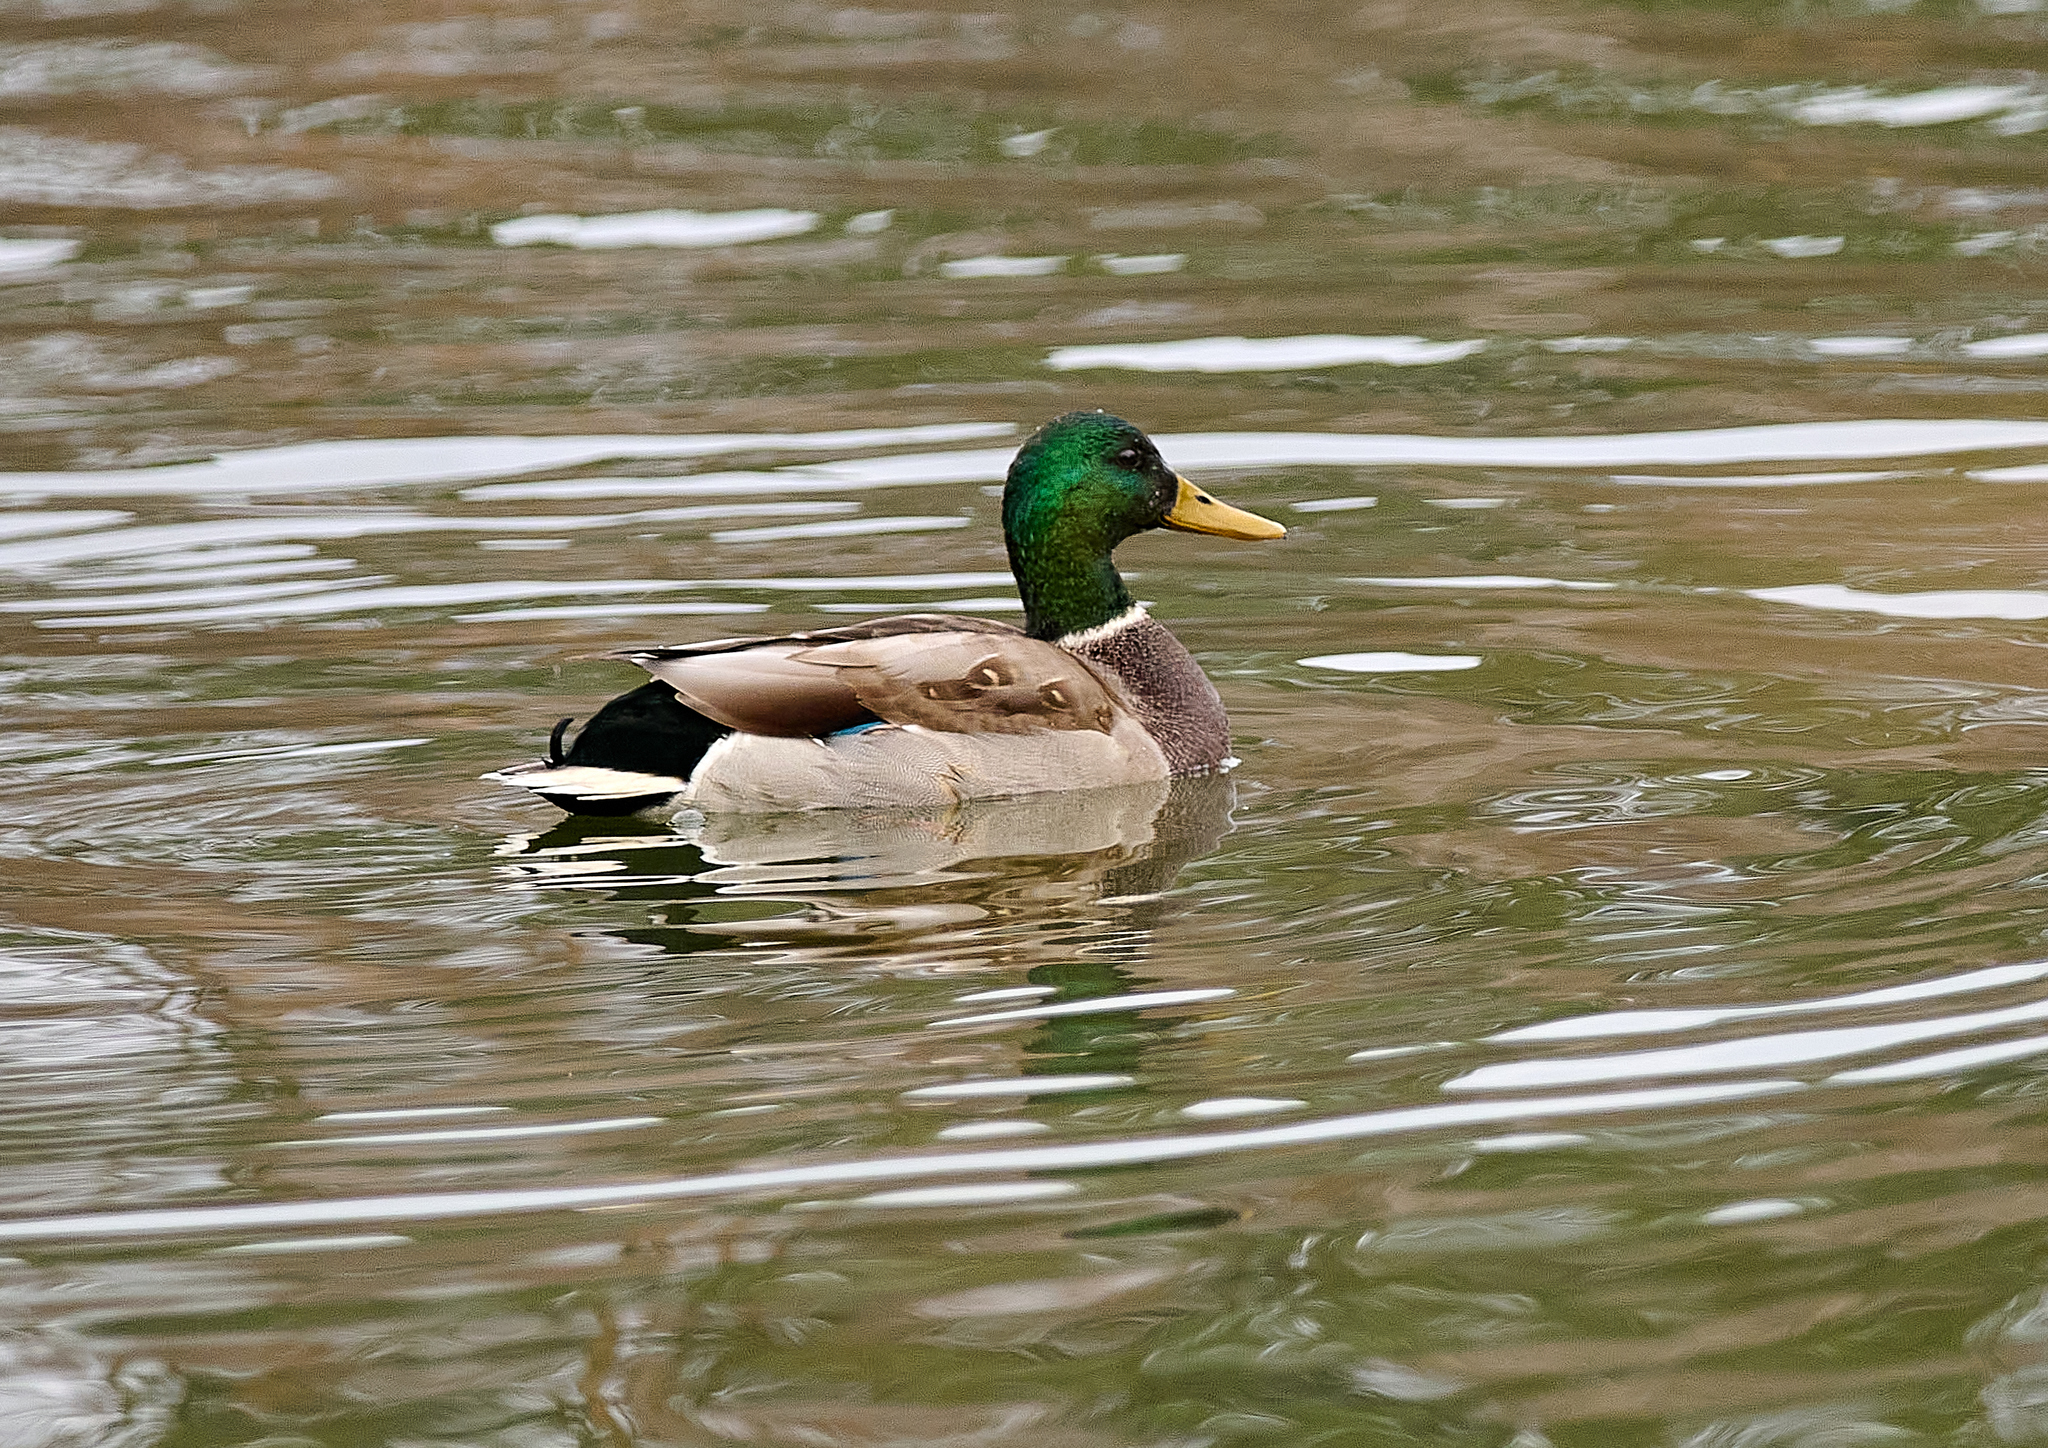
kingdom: Animalia
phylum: Chordata
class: Aves
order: Anseriformes
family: Anatidae
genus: Anas
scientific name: Anas platyrhynchos
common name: Mallard
